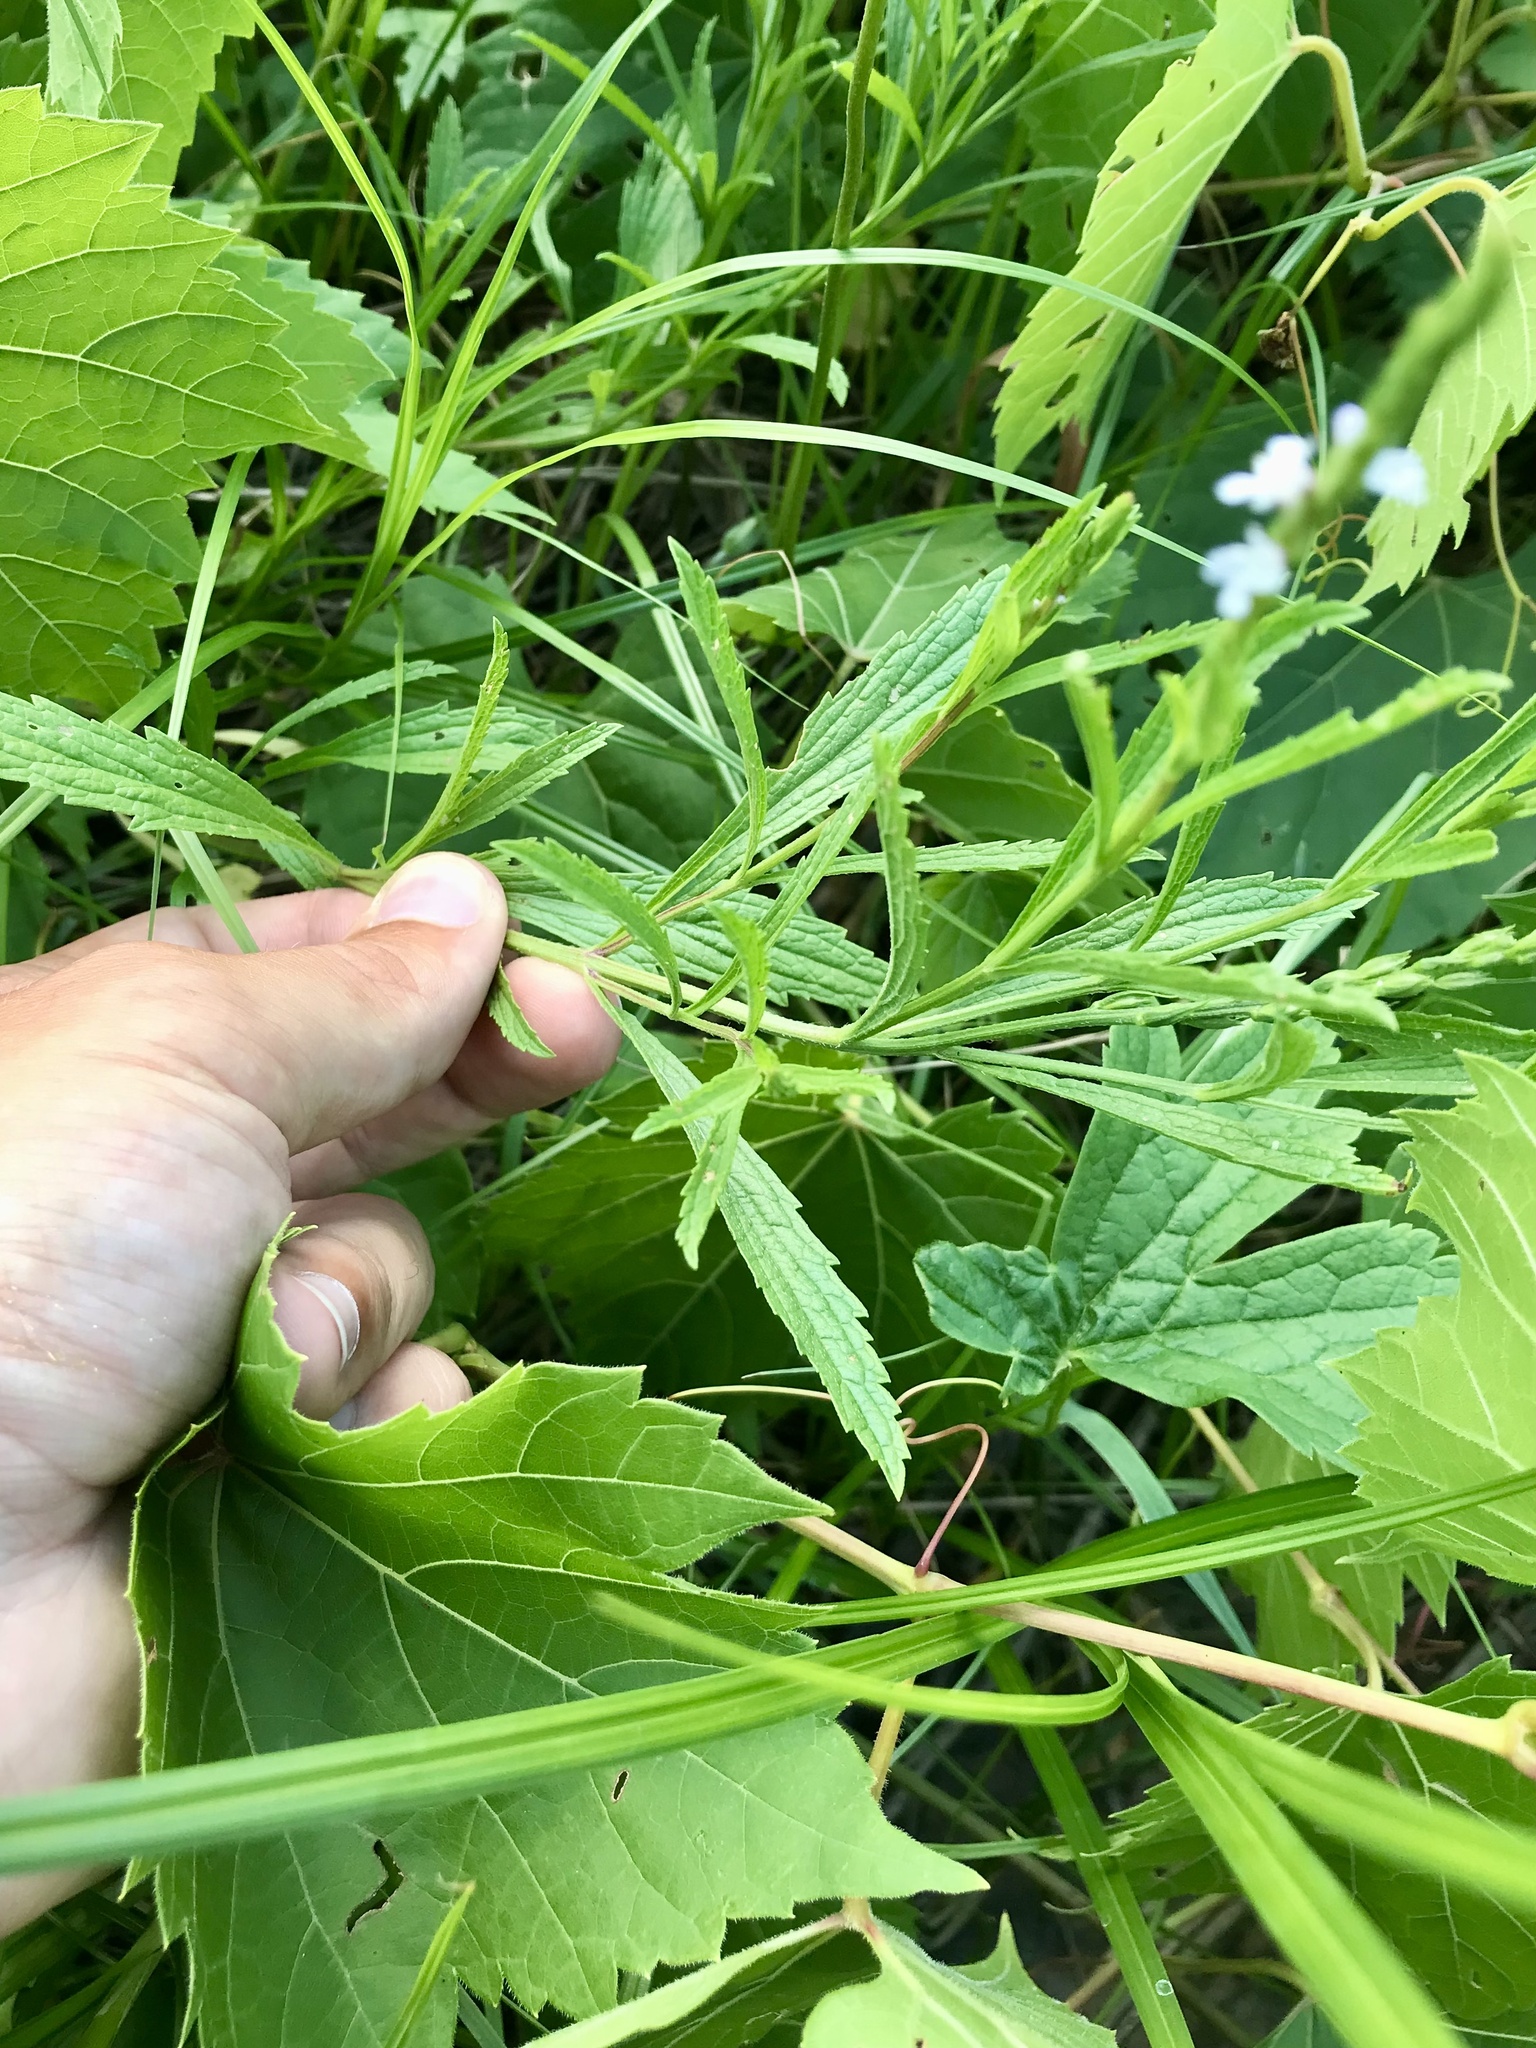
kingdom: Plantae
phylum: Tracheophyta
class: Magnoliopsida
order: Lamiales
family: Verbenaceae
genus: Verbena
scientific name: Verbena simplex
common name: Narrow-leaf vervain
